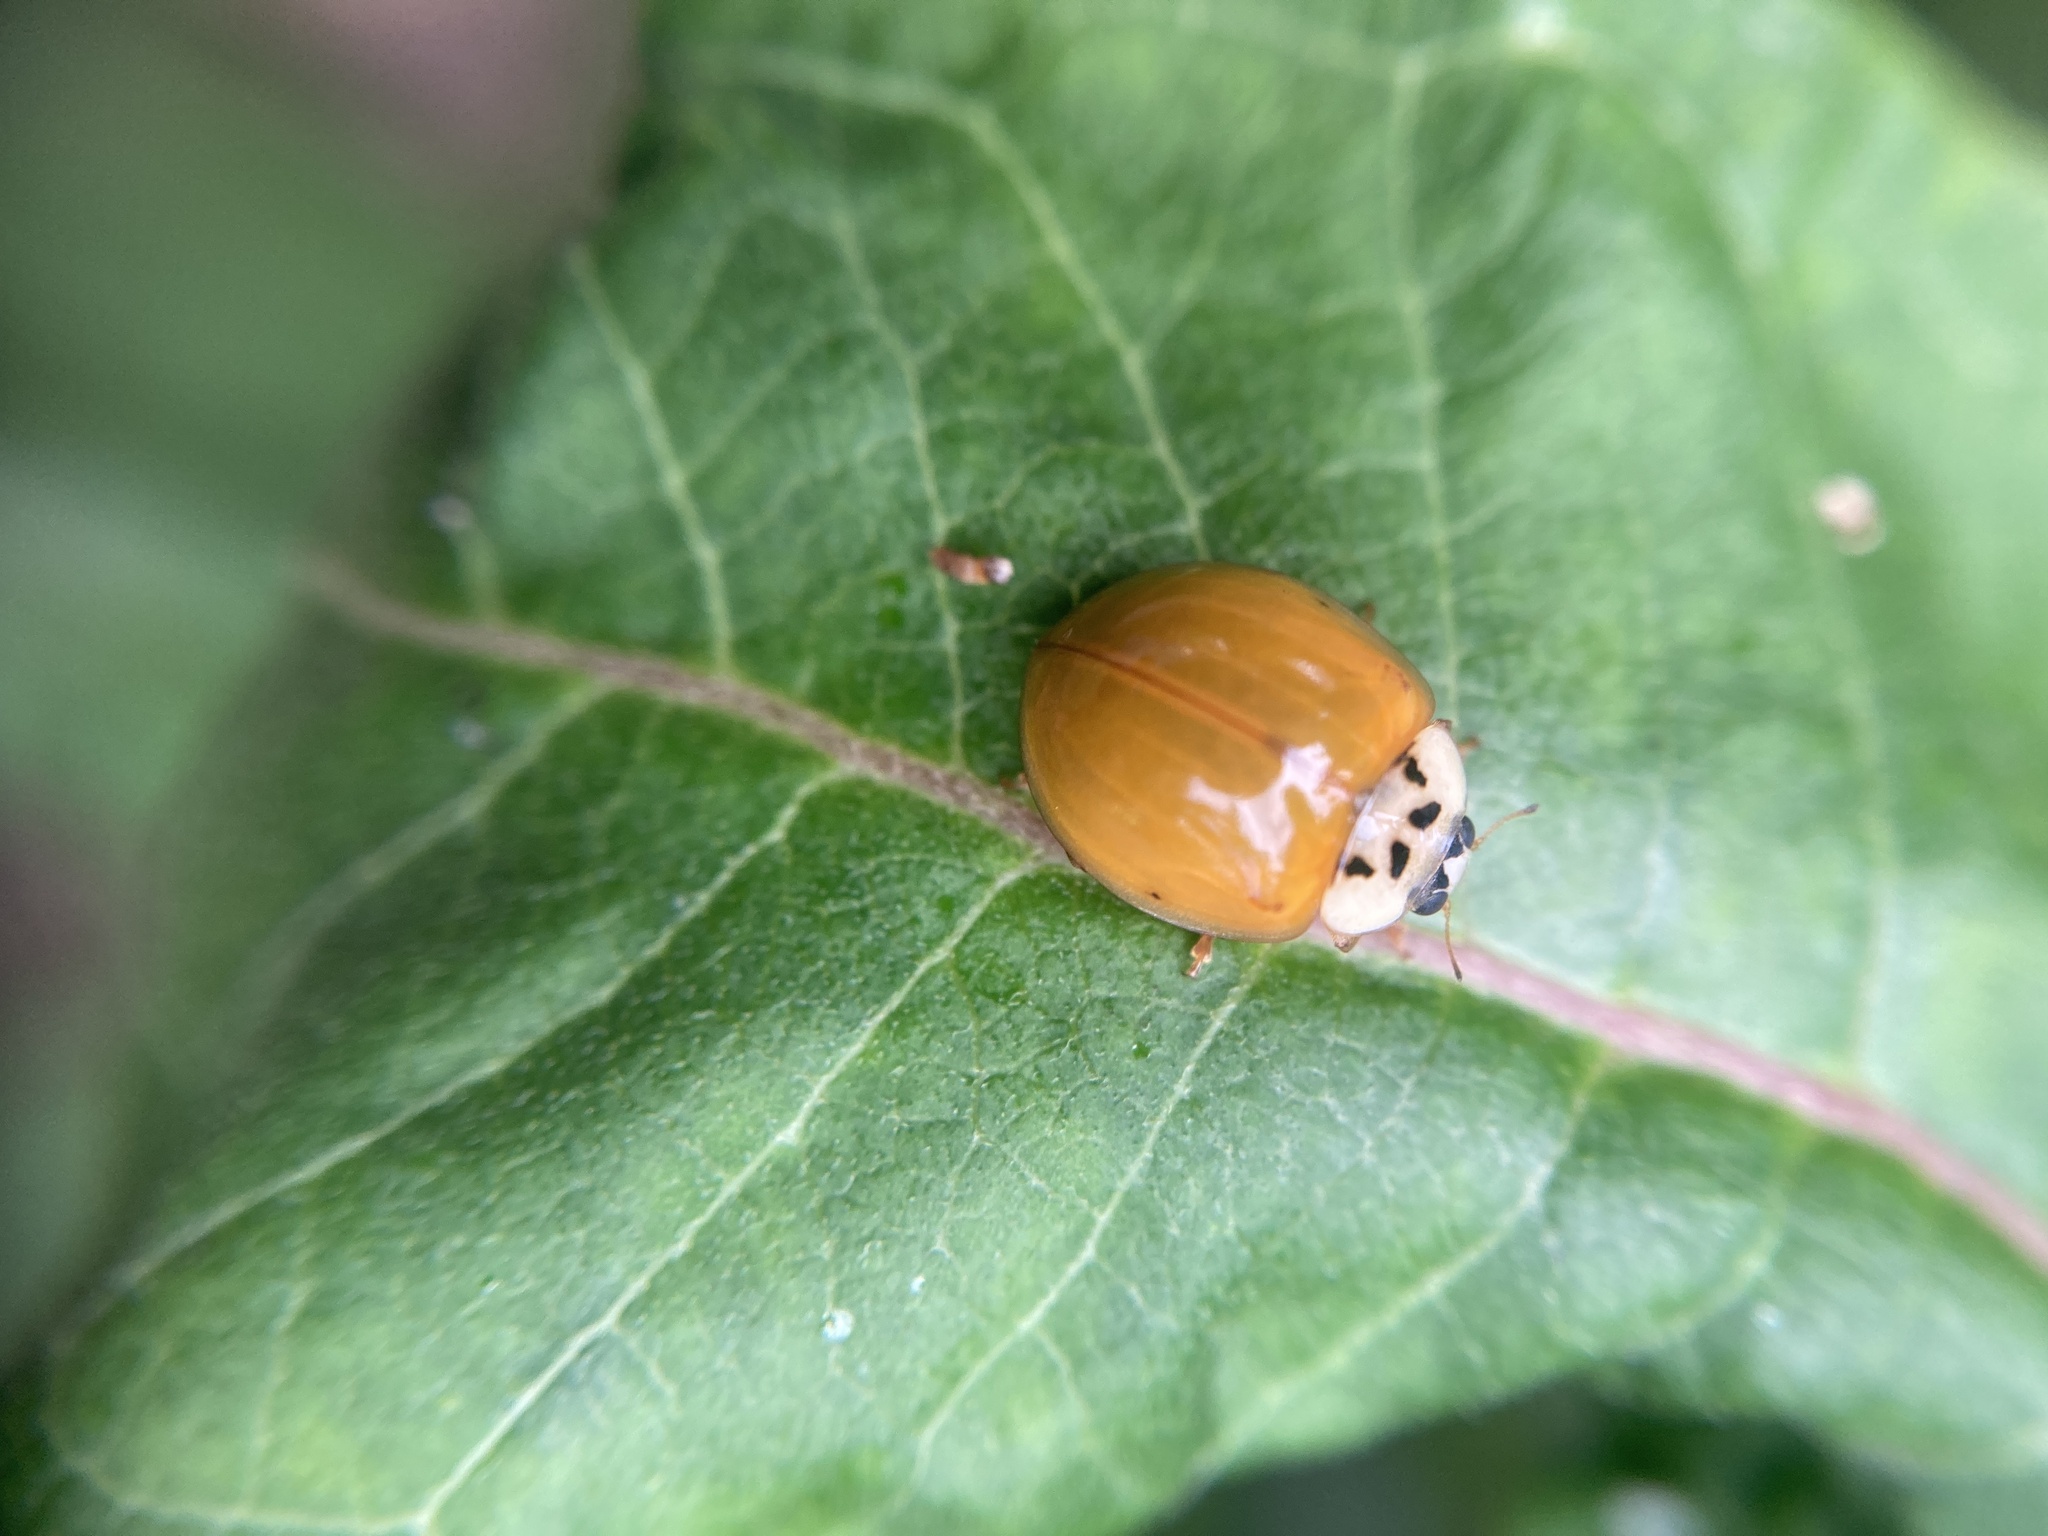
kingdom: Animalia
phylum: Arthropoda
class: Insecta
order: Coleoptera
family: Coccinellidae
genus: Harmonia
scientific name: Harmonia axyridis
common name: Harlequin ladybird
